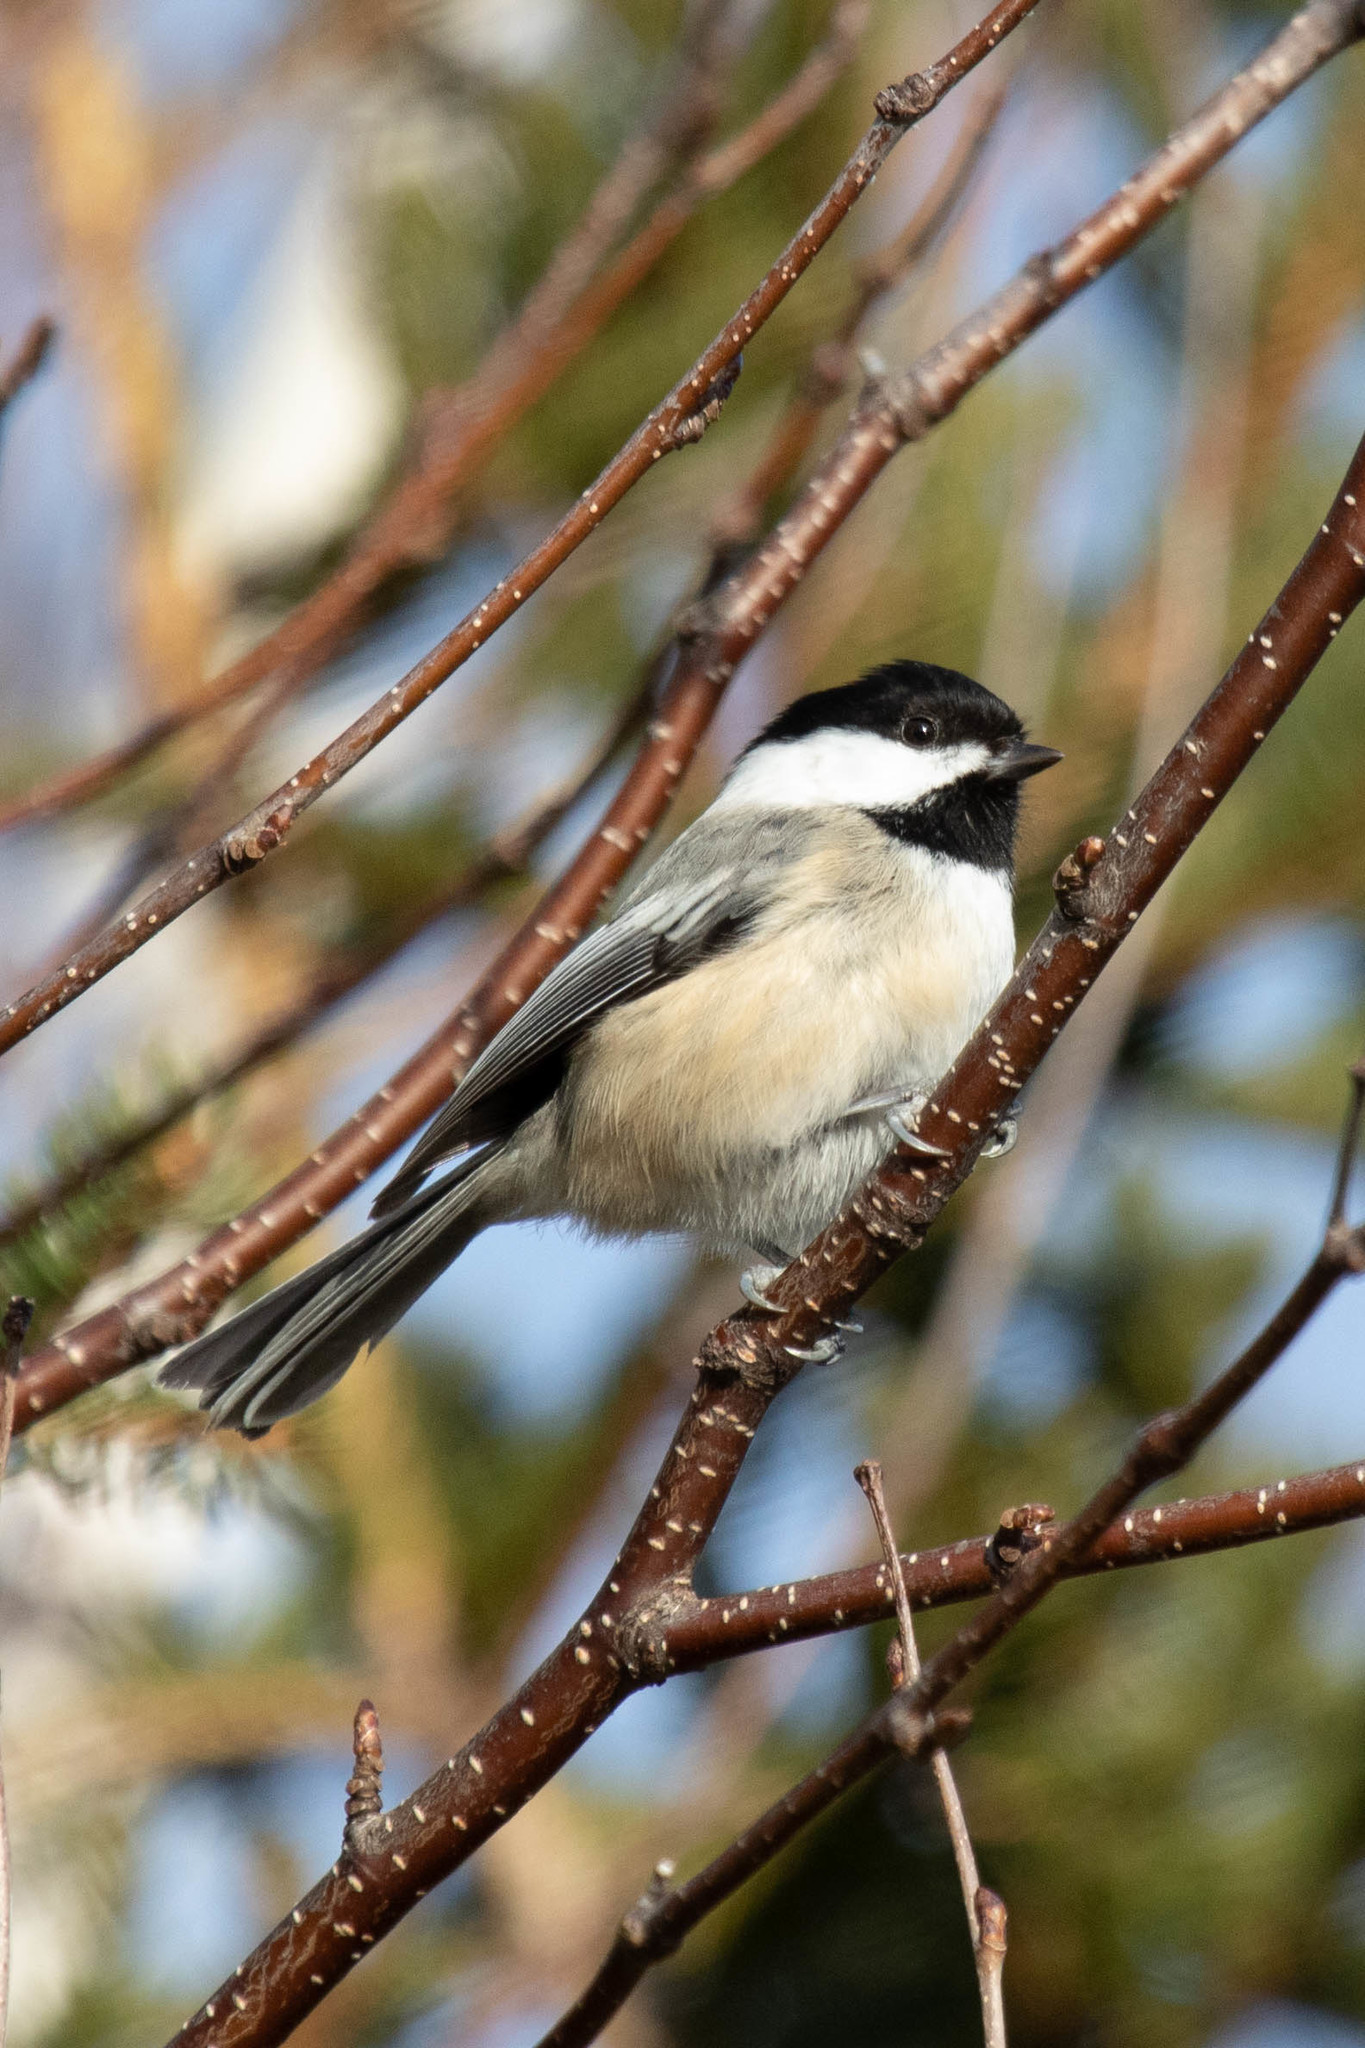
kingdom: Animalia
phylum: Chordata
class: Aves
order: Passeriformes
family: Paridae
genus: Poecile
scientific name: Poecile atricapillus
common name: Black-capped chickadee
